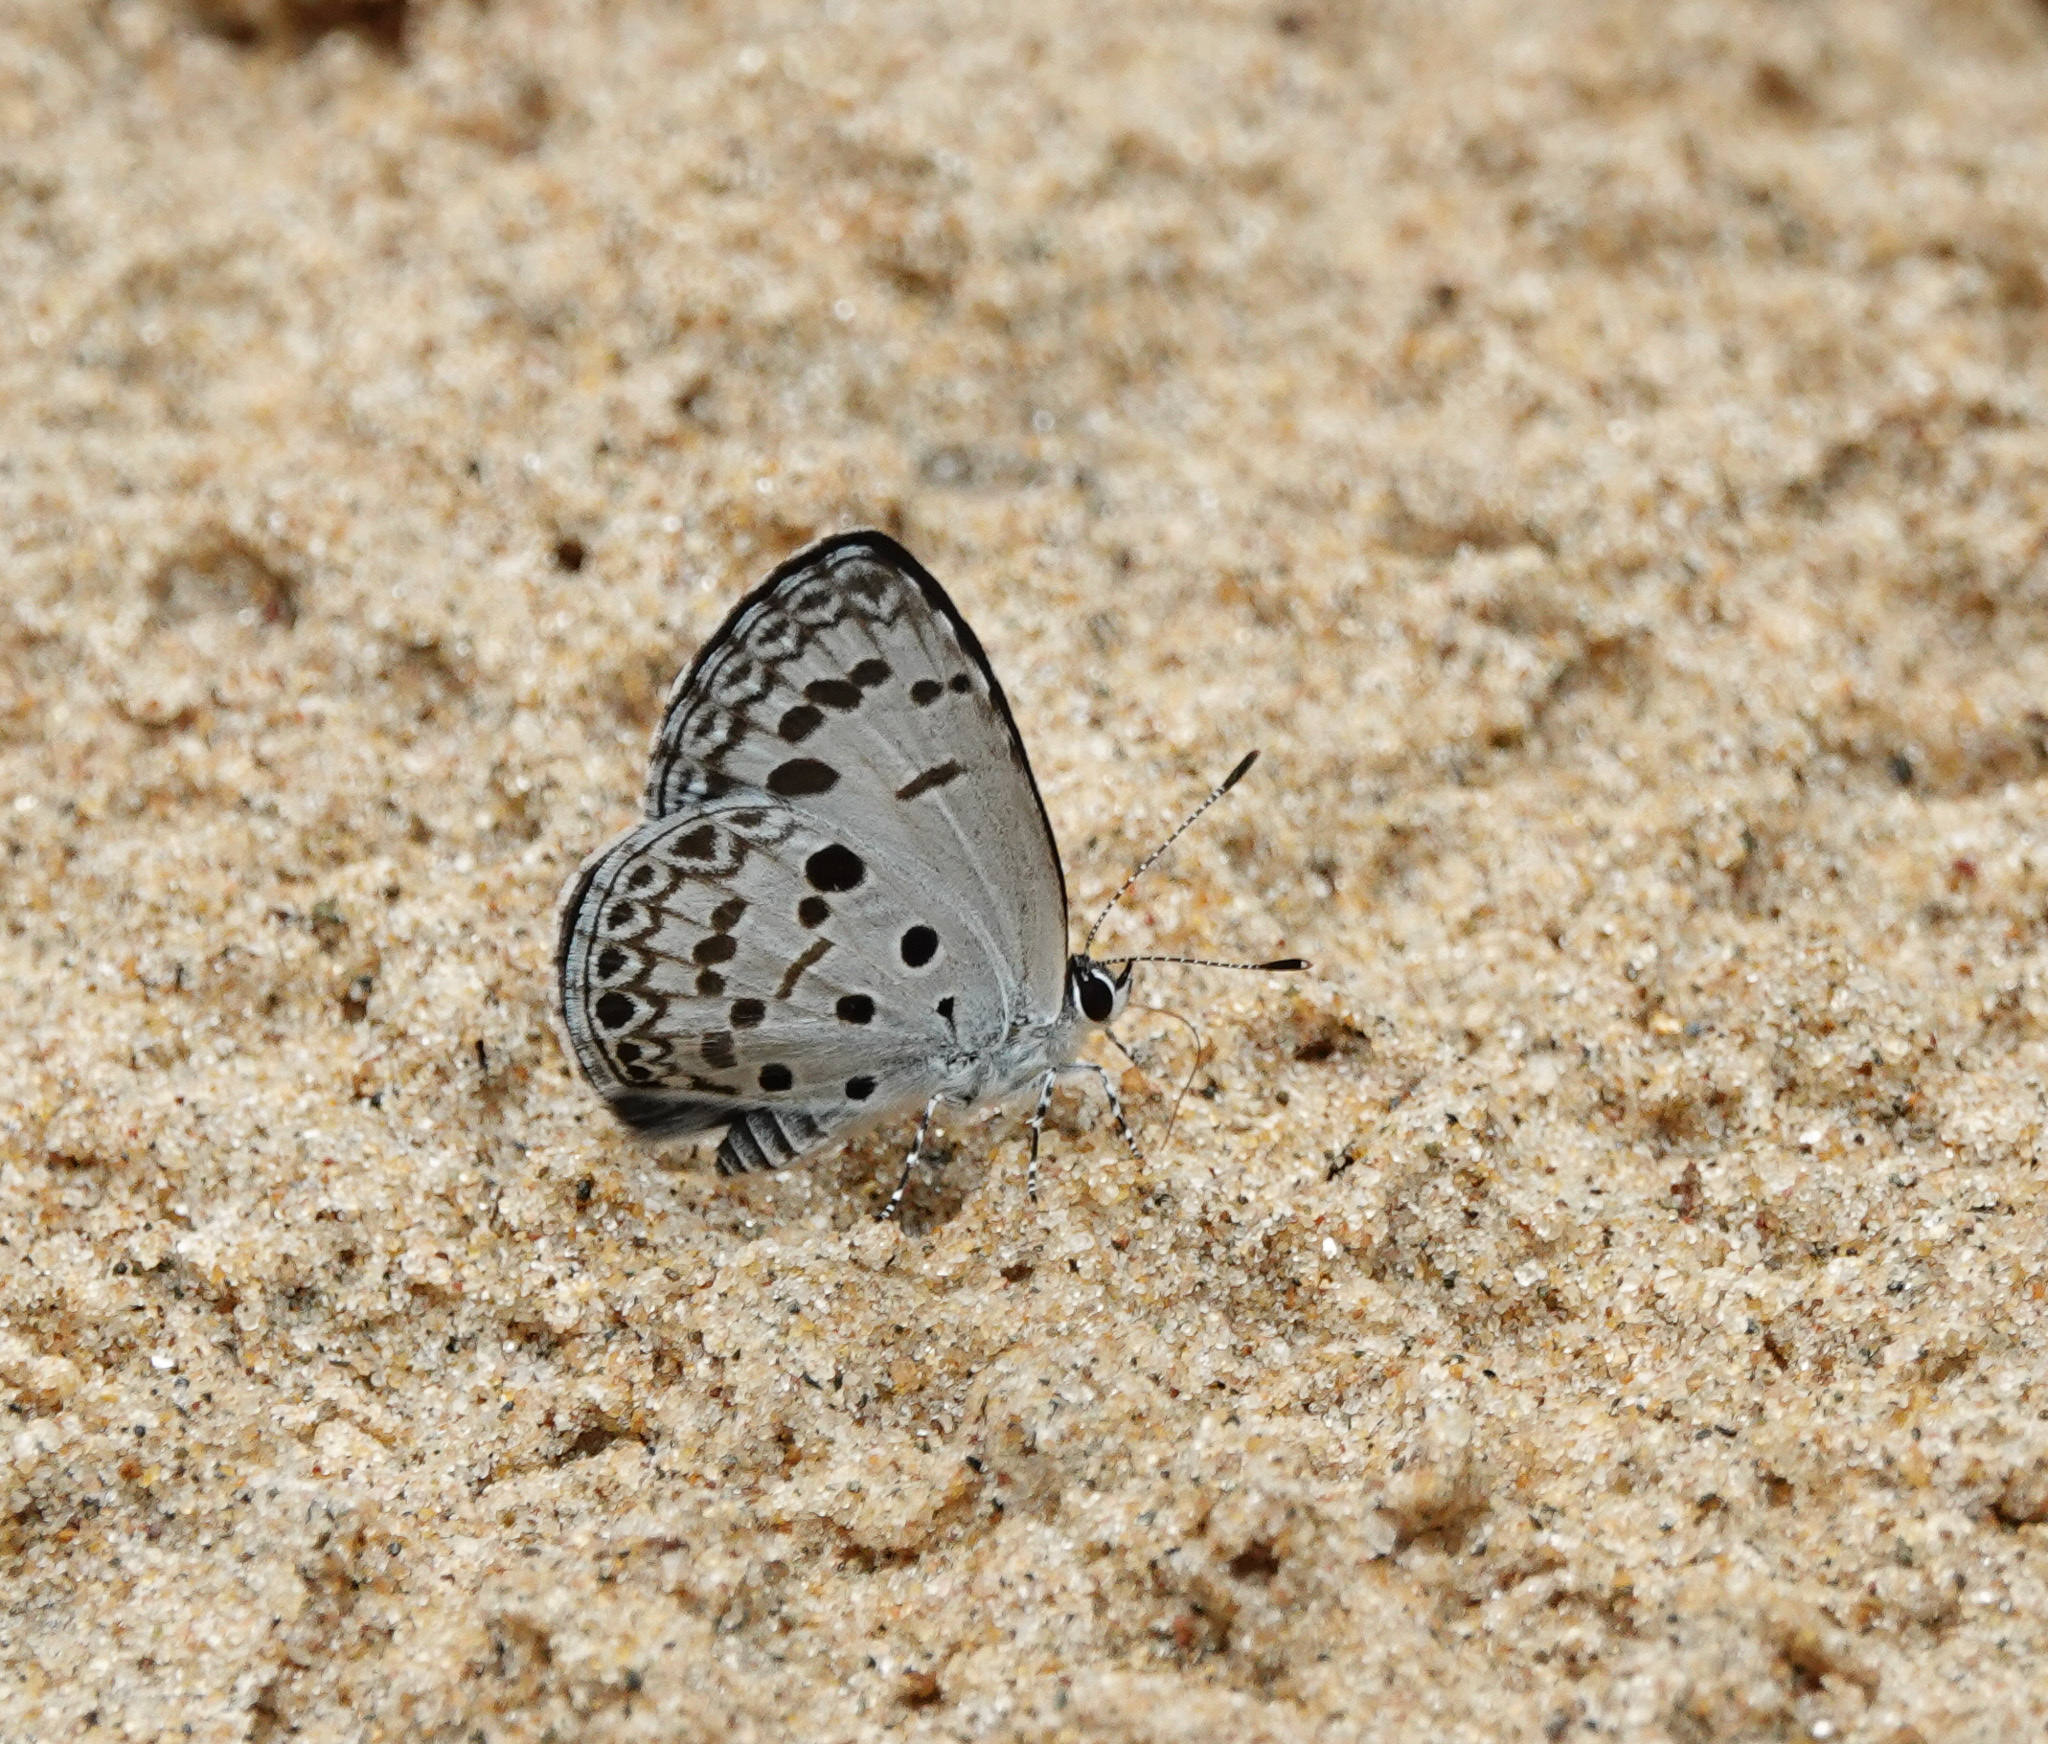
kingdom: Animalia
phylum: Arthropoda
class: Insecta
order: Lepidoptera
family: Lycaenidae
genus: Acytolepis
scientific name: Acytolepis puspa
